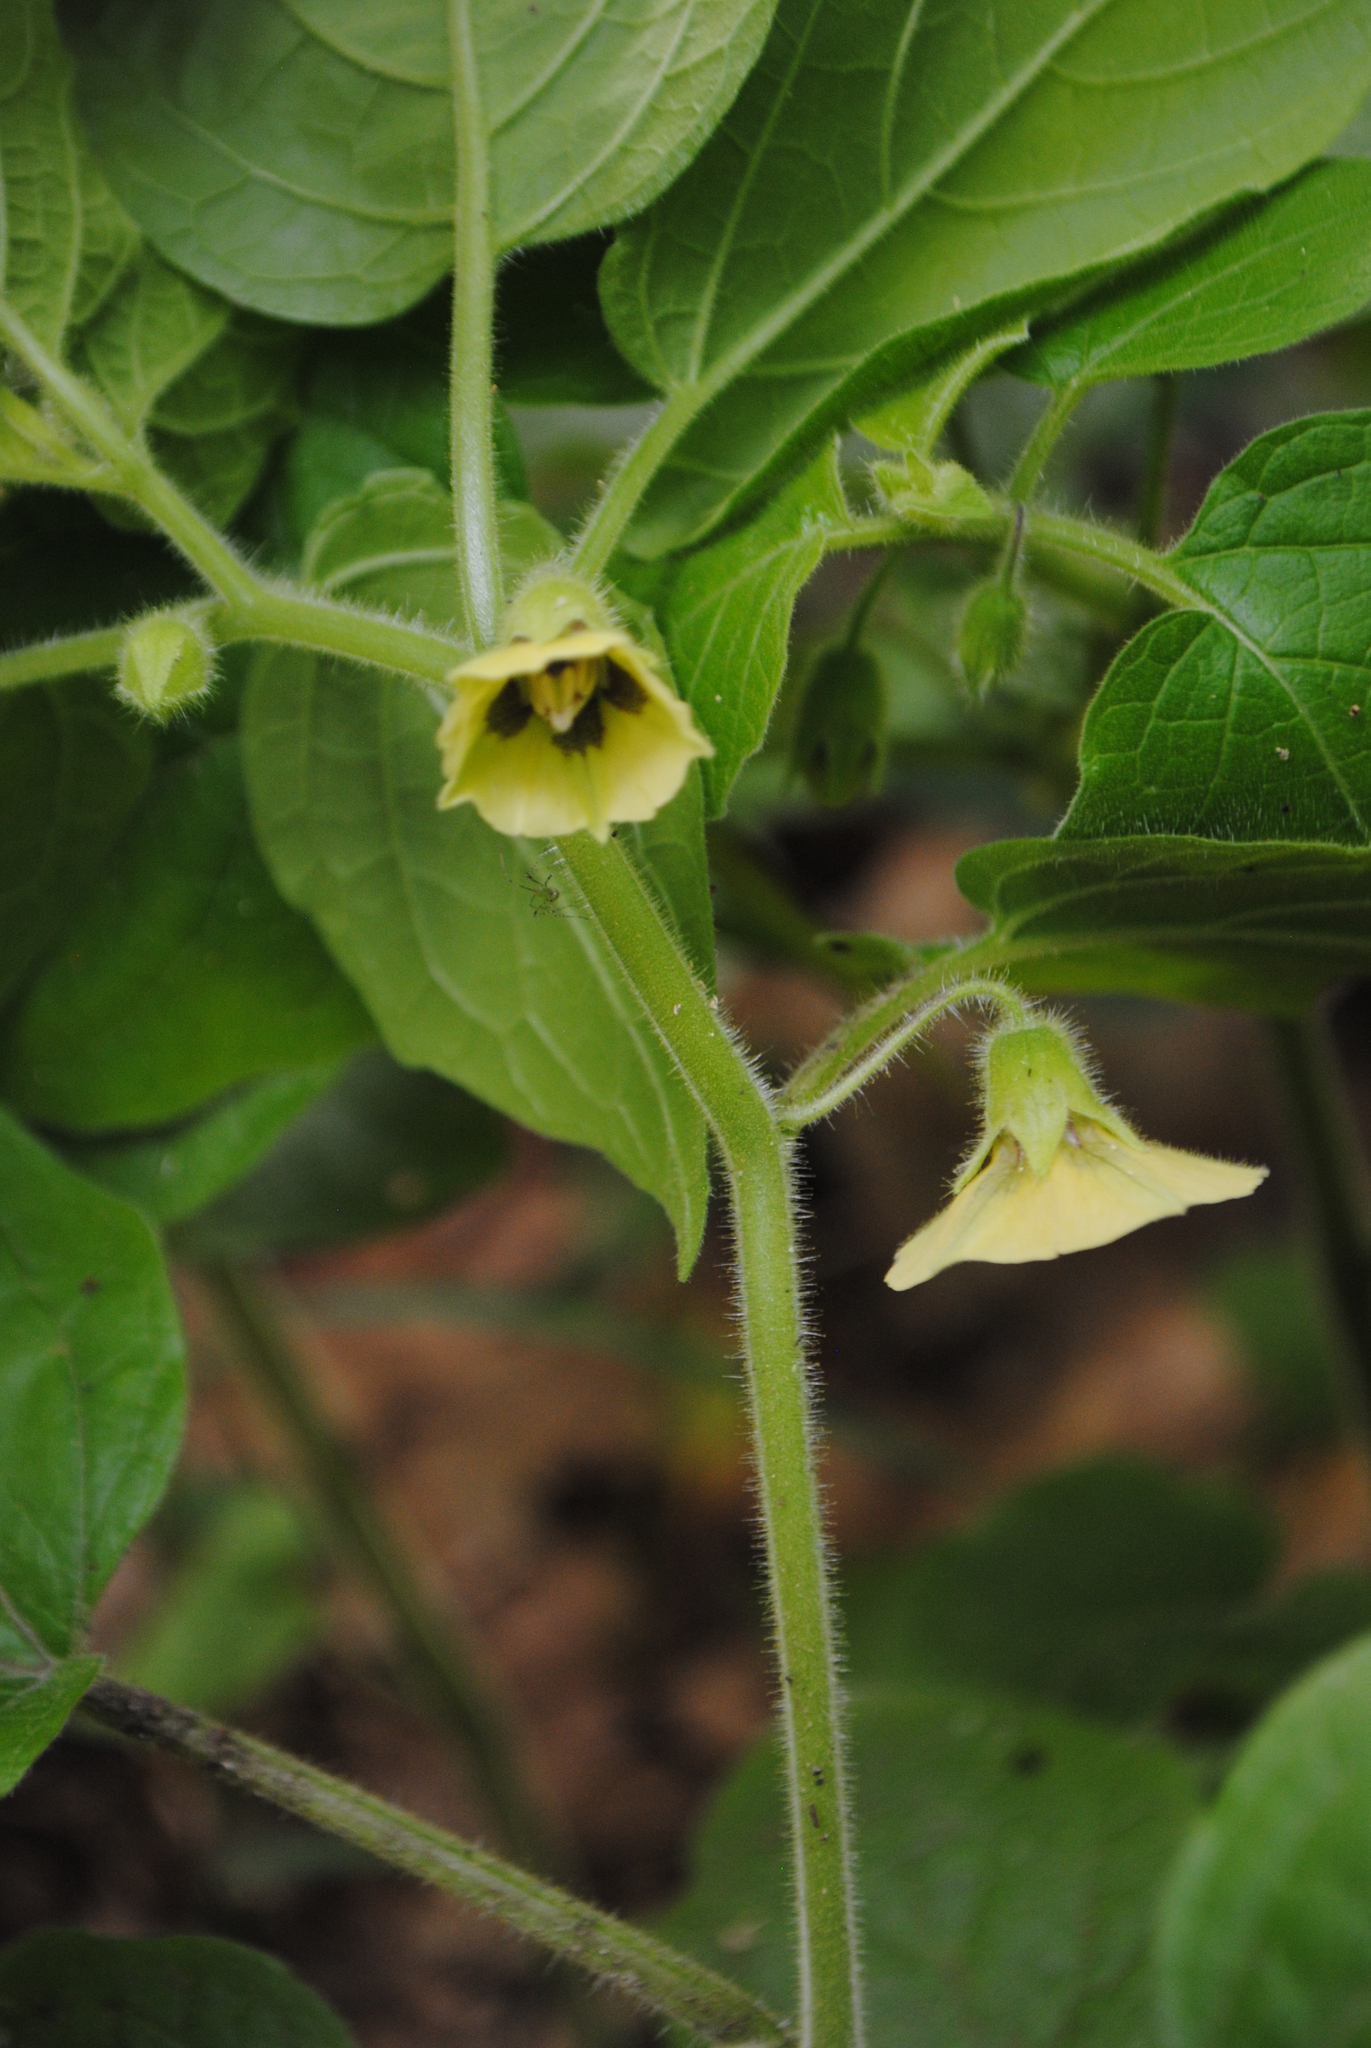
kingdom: Plantae
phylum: Tracheophyta
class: Magnoliopsida
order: Solanales
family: Solanaceae
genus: Physalis
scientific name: Physalis heterophylla
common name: Clammy ground-cherry
